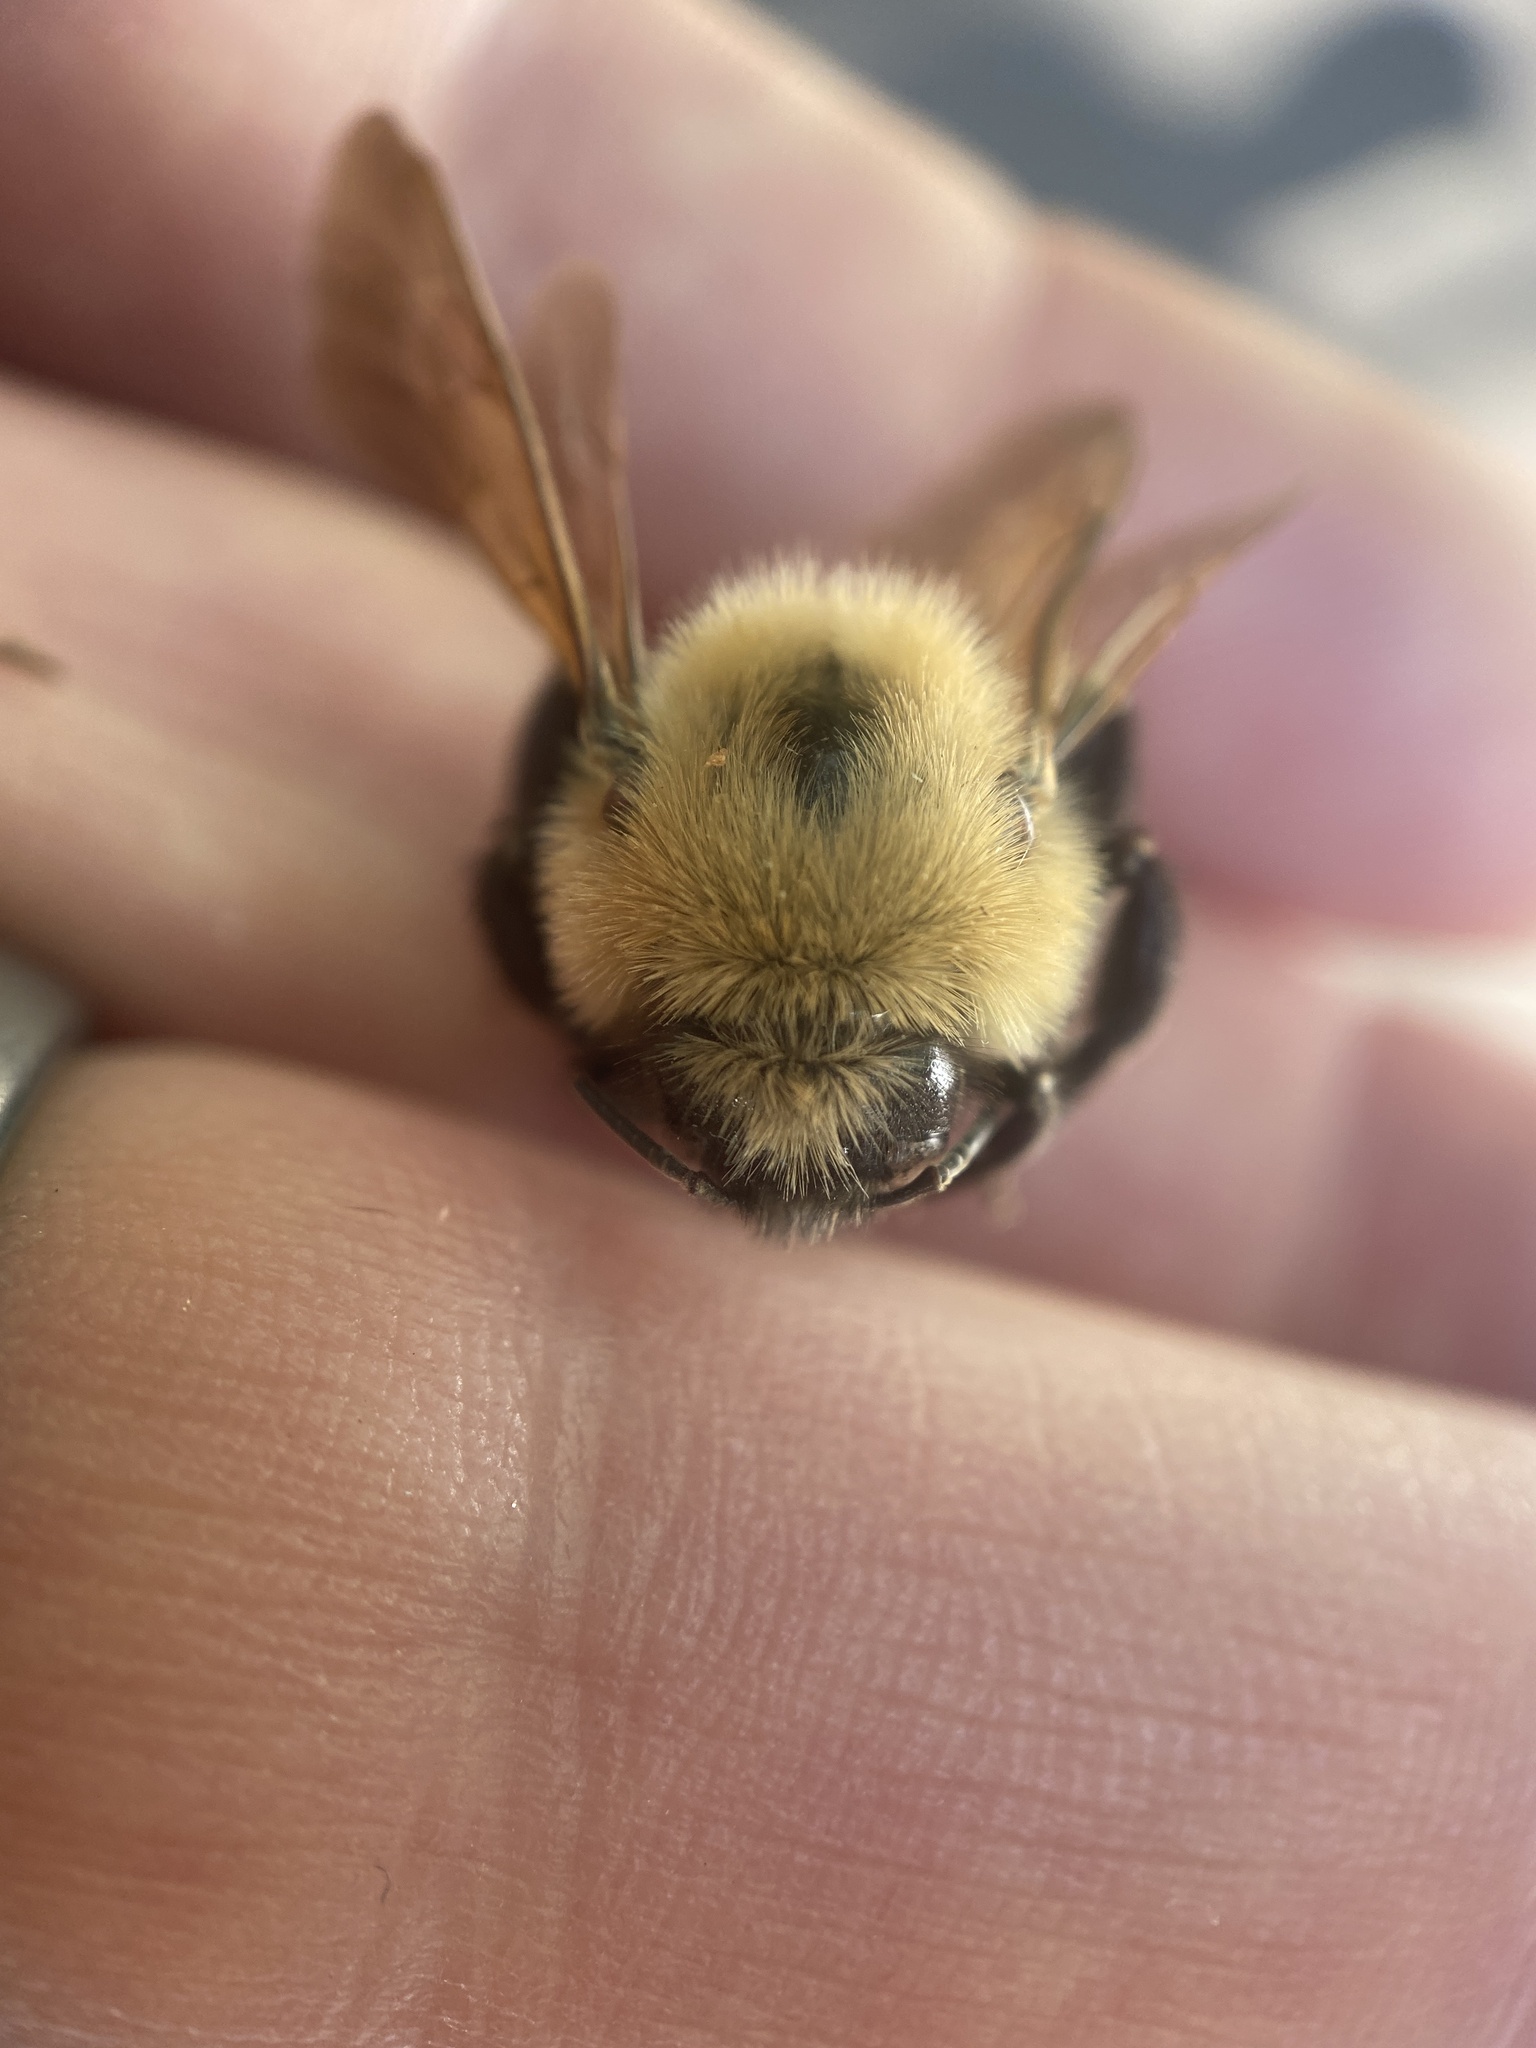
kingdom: Animalia
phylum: Arthropoda
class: Insecta
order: Hymenoptera
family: Apidae
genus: Bombus
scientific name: Bombus citrinus
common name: Lemon cuckoo bumble bee
